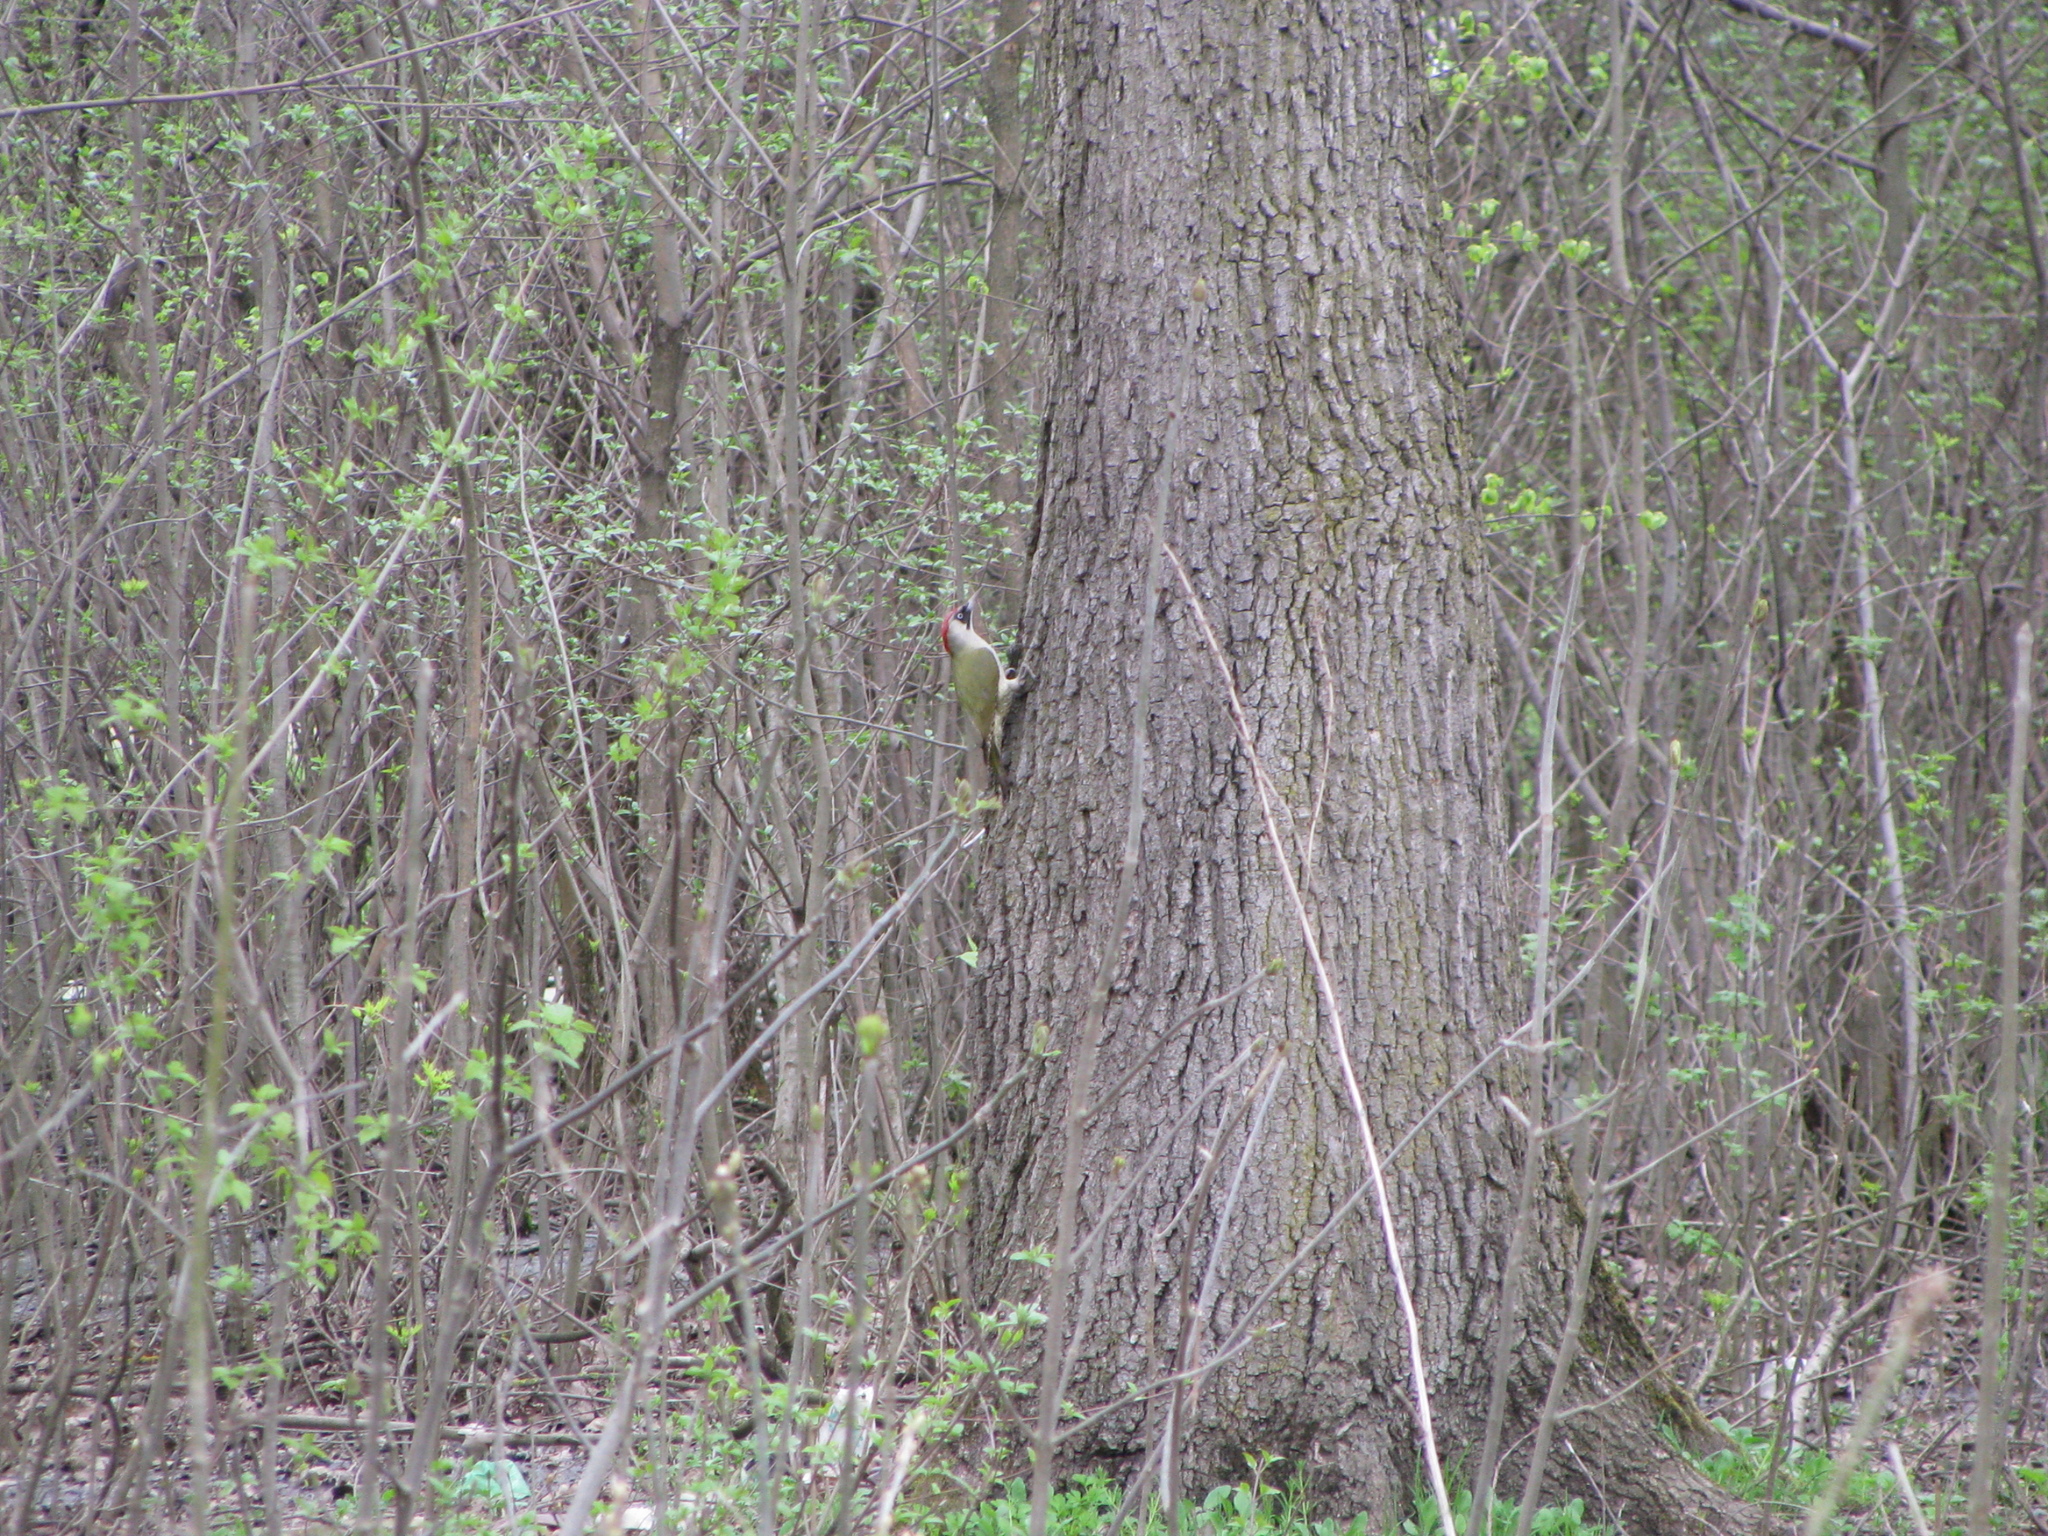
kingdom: Animalia
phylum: Chordata
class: Aves
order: Piciformes
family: Picidae
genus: Picus
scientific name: Picus viridis
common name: European green woodpecker
